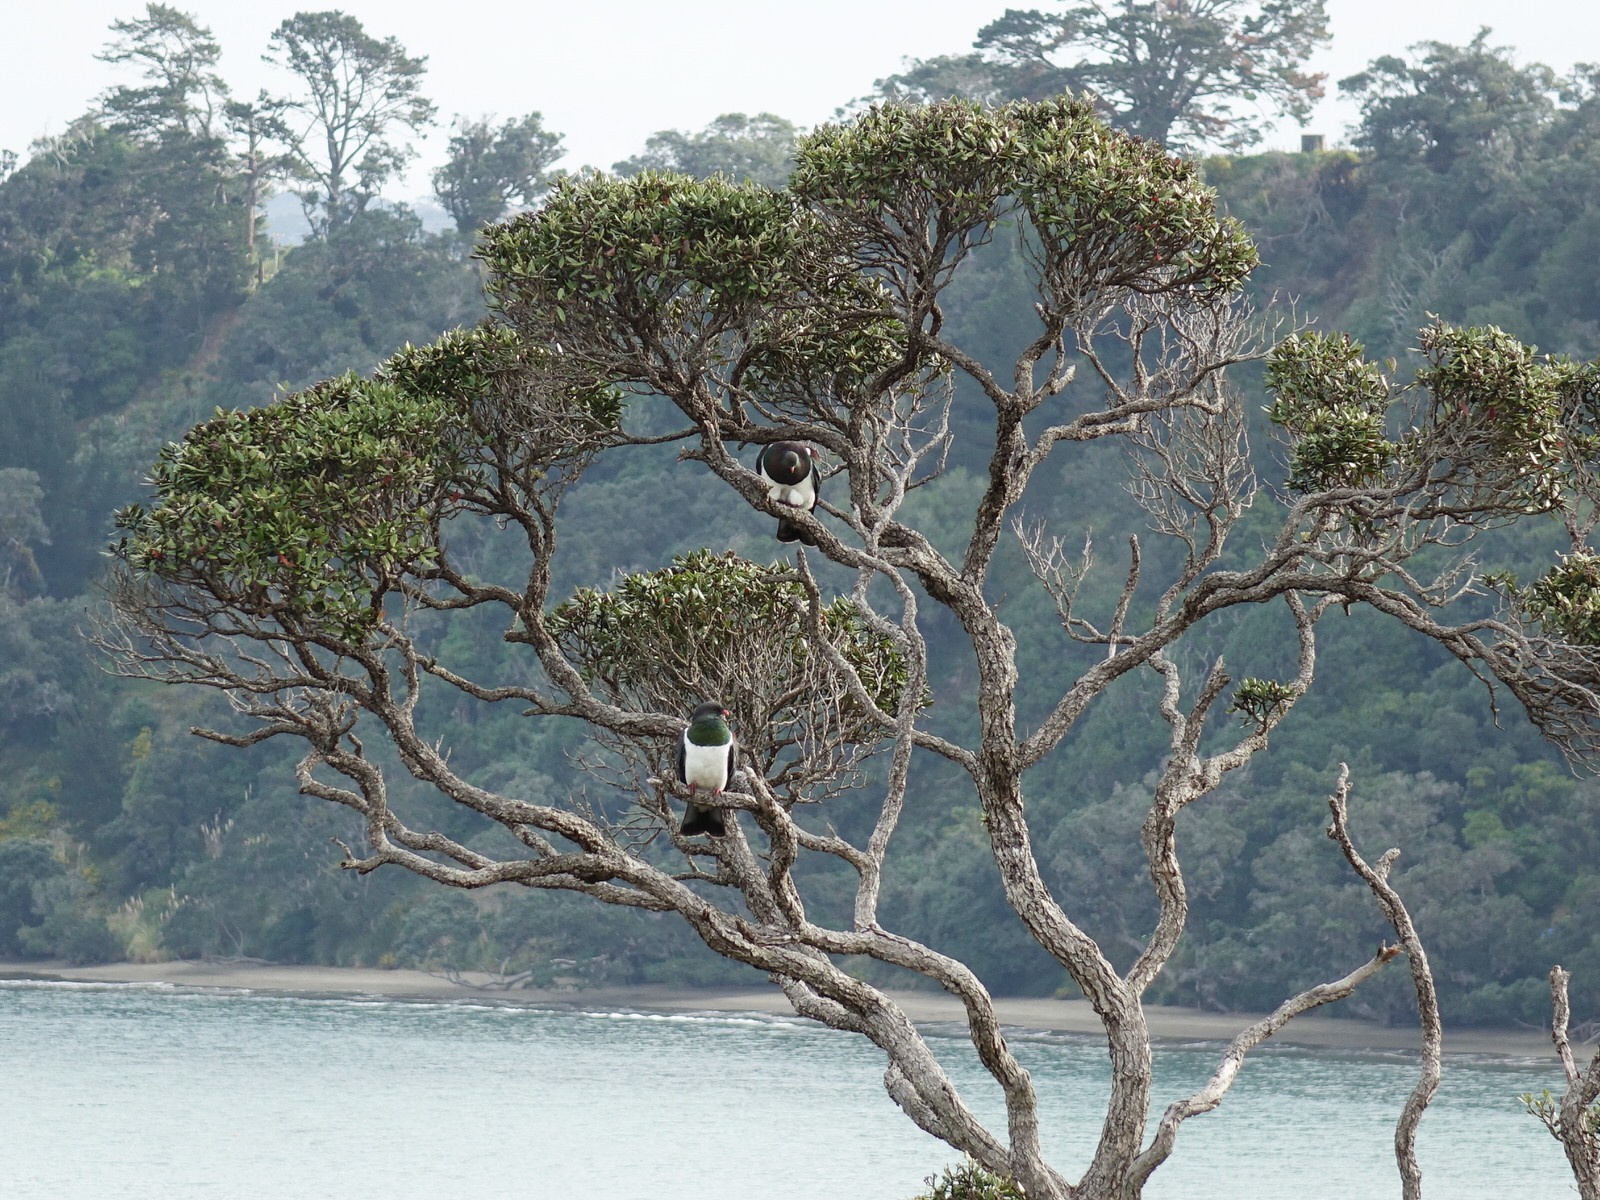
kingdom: Animalia
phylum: Chordata
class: Aves
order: Columbiformes
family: Columbidae
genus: Hemiphaga
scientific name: Hemiphaga novaeseelandiae
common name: New zealand pigeon
